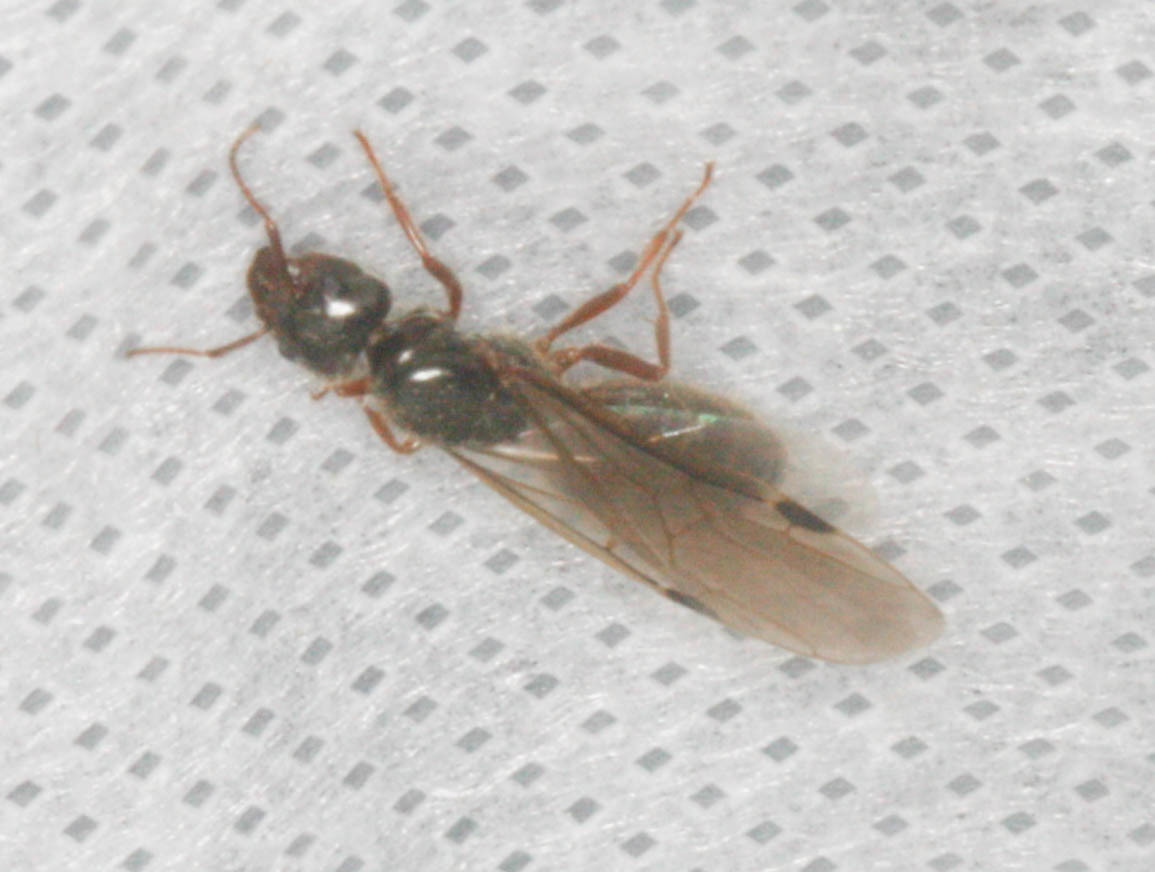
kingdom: Animalia
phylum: Arthropoda
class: Insecta
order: Hymenoptera
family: Formicidae
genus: Liometopum
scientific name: Liometopum occidentale
